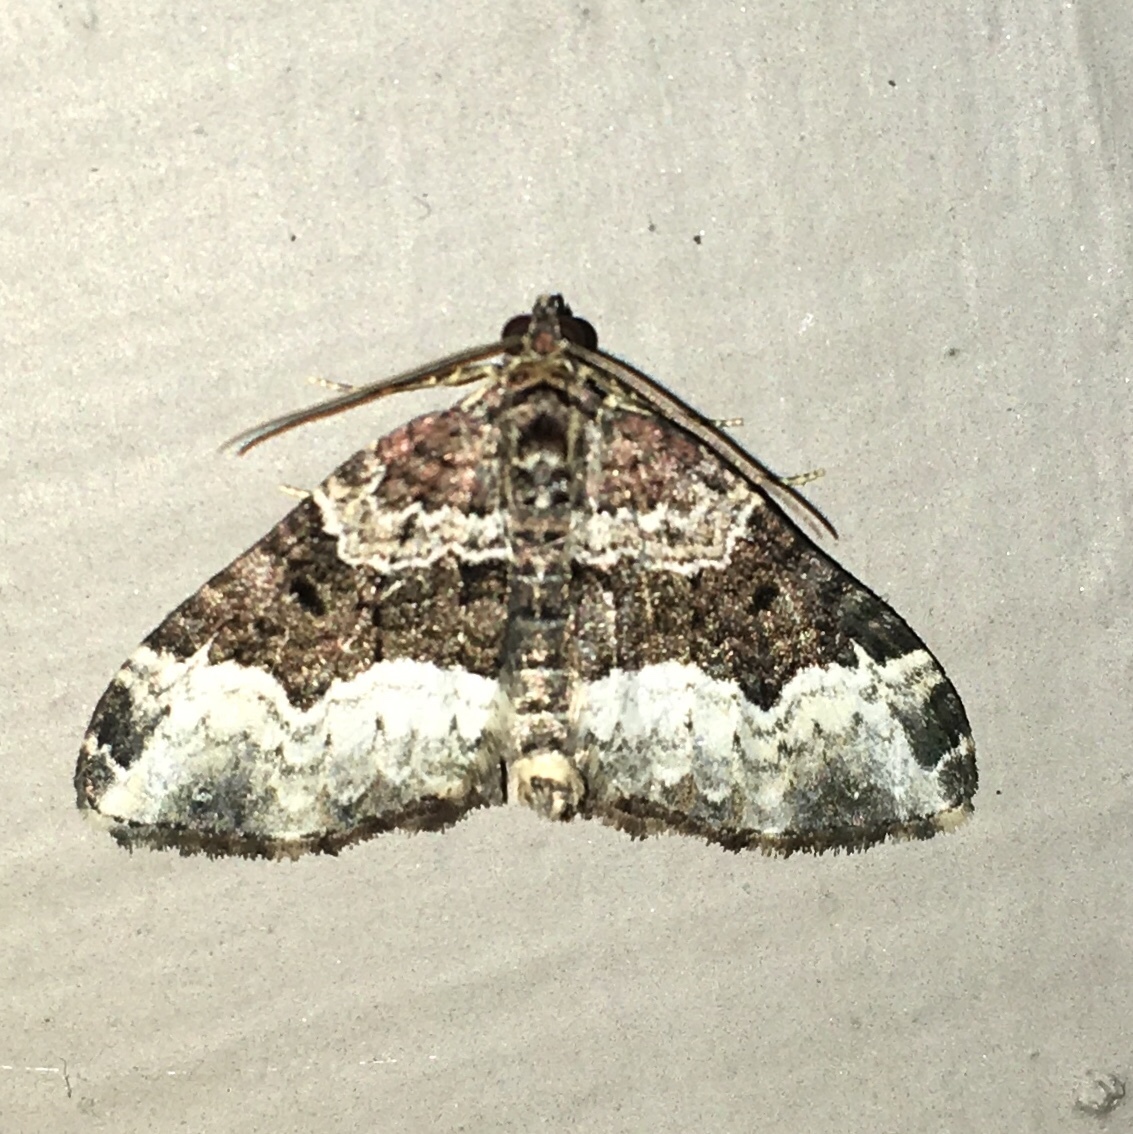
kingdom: Animalia
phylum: Arthropoda
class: Insecta
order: Lepidoptera
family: Geometridae
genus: Euphyia
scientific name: Euphyia intermediata
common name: Sharp-angled carpet
